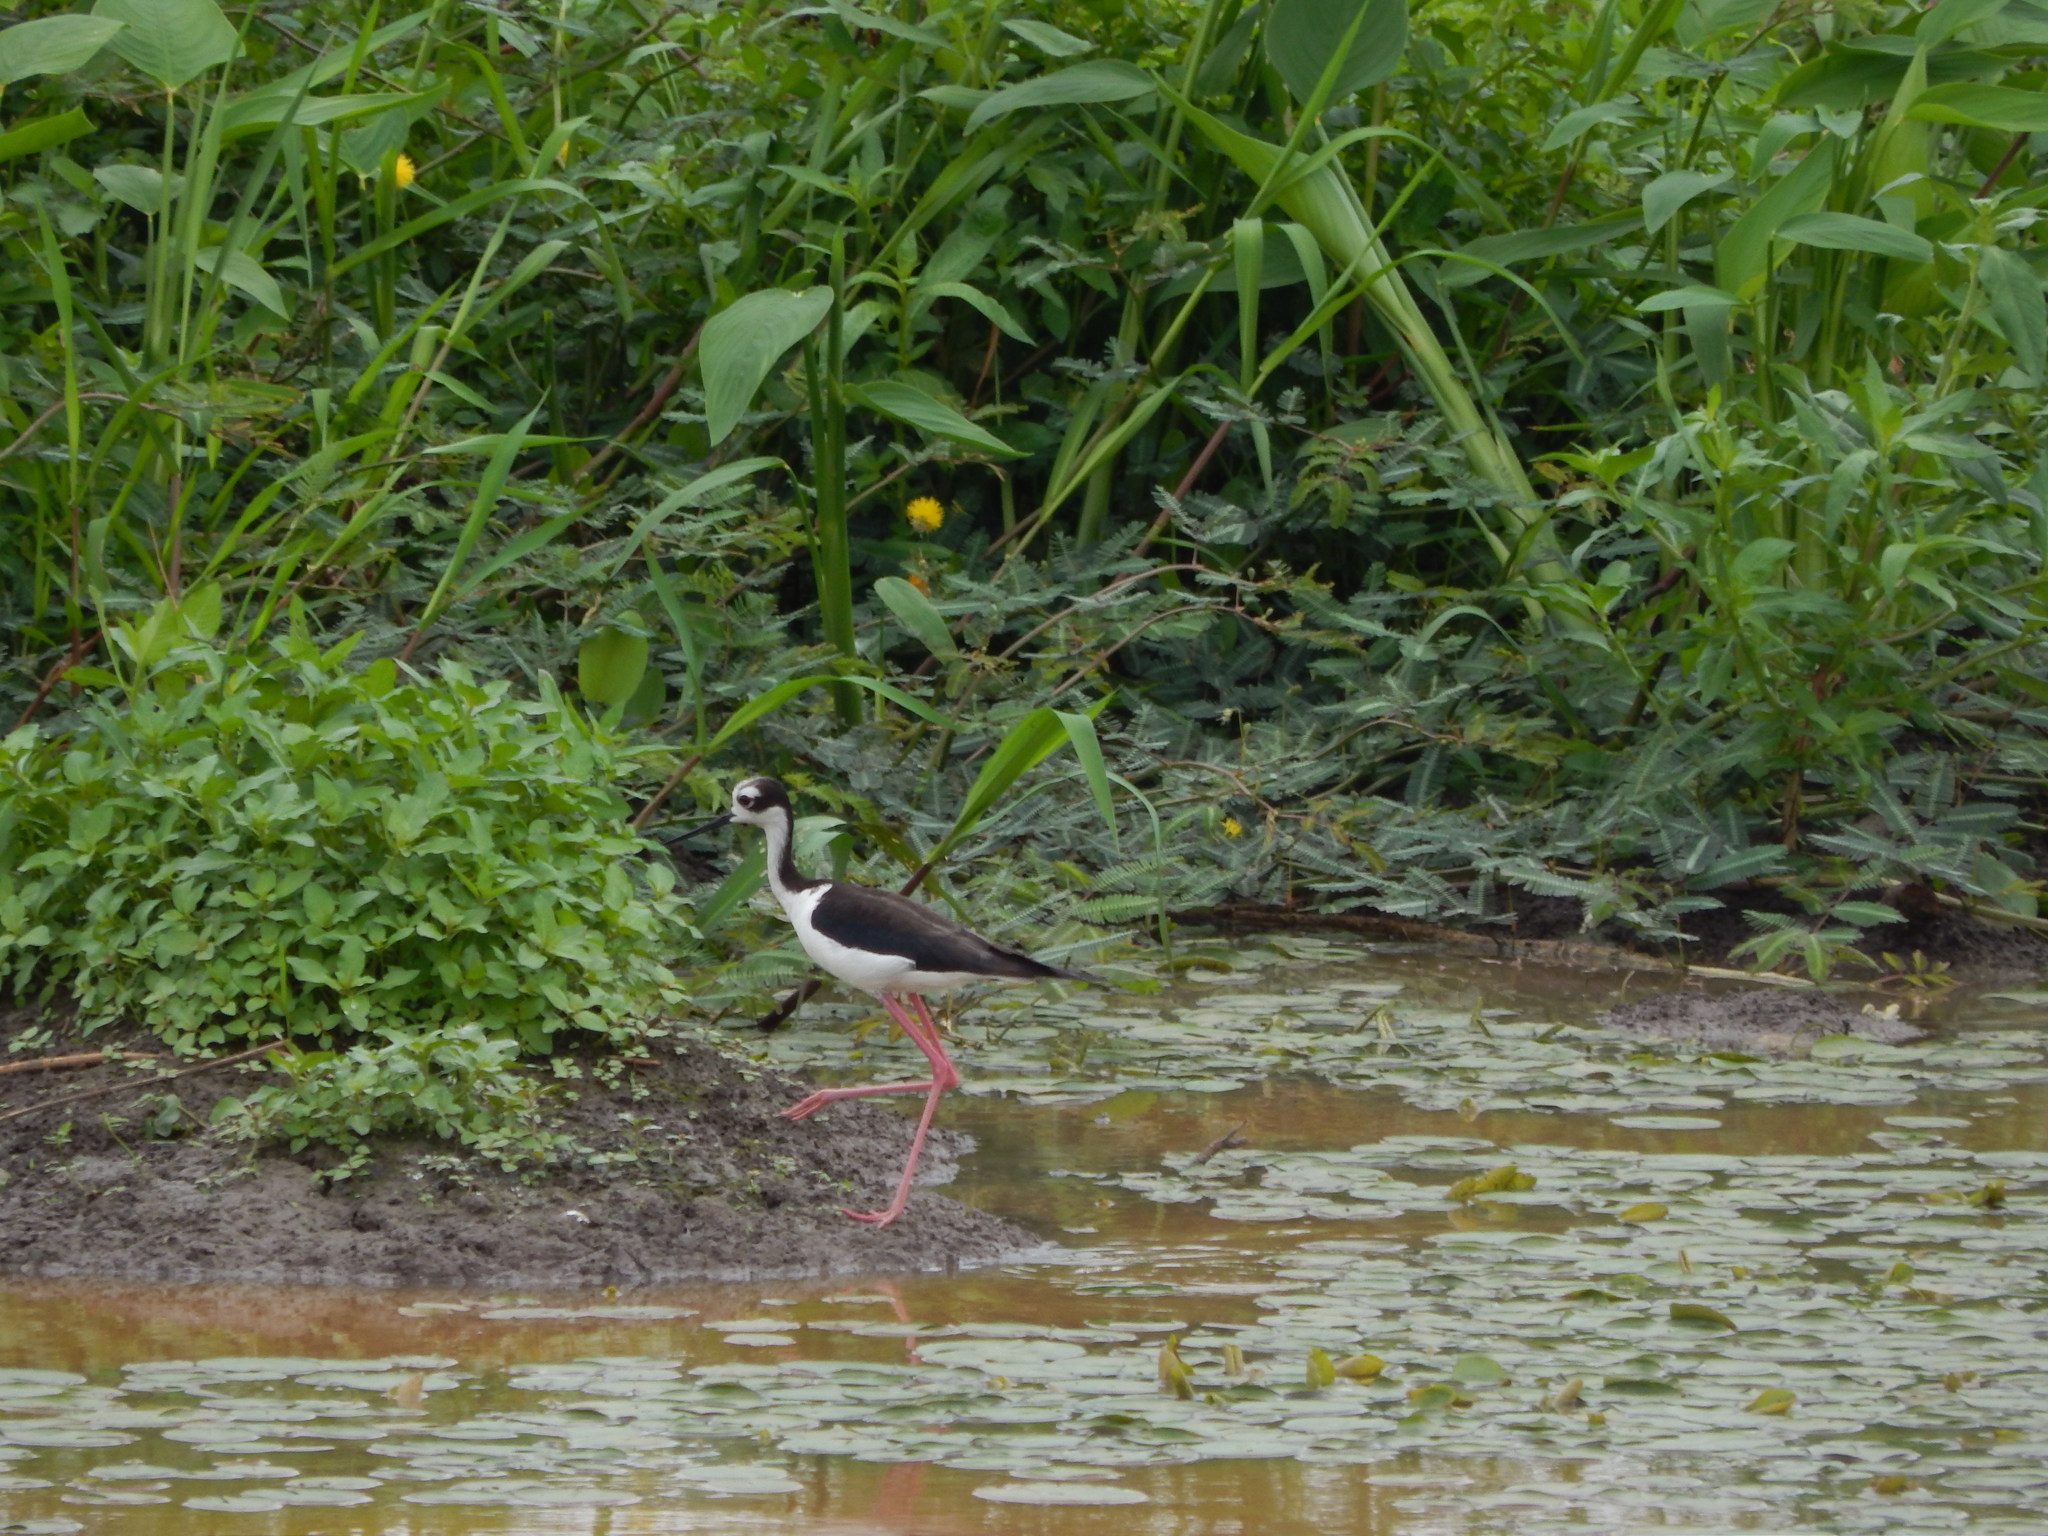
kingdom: Animalia
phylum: Chordata
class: Aves
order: Charadriiformes
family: Recurvirostridae
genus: Himantopus
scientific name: Himantopus mexicanus
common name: Black-necked stilt
